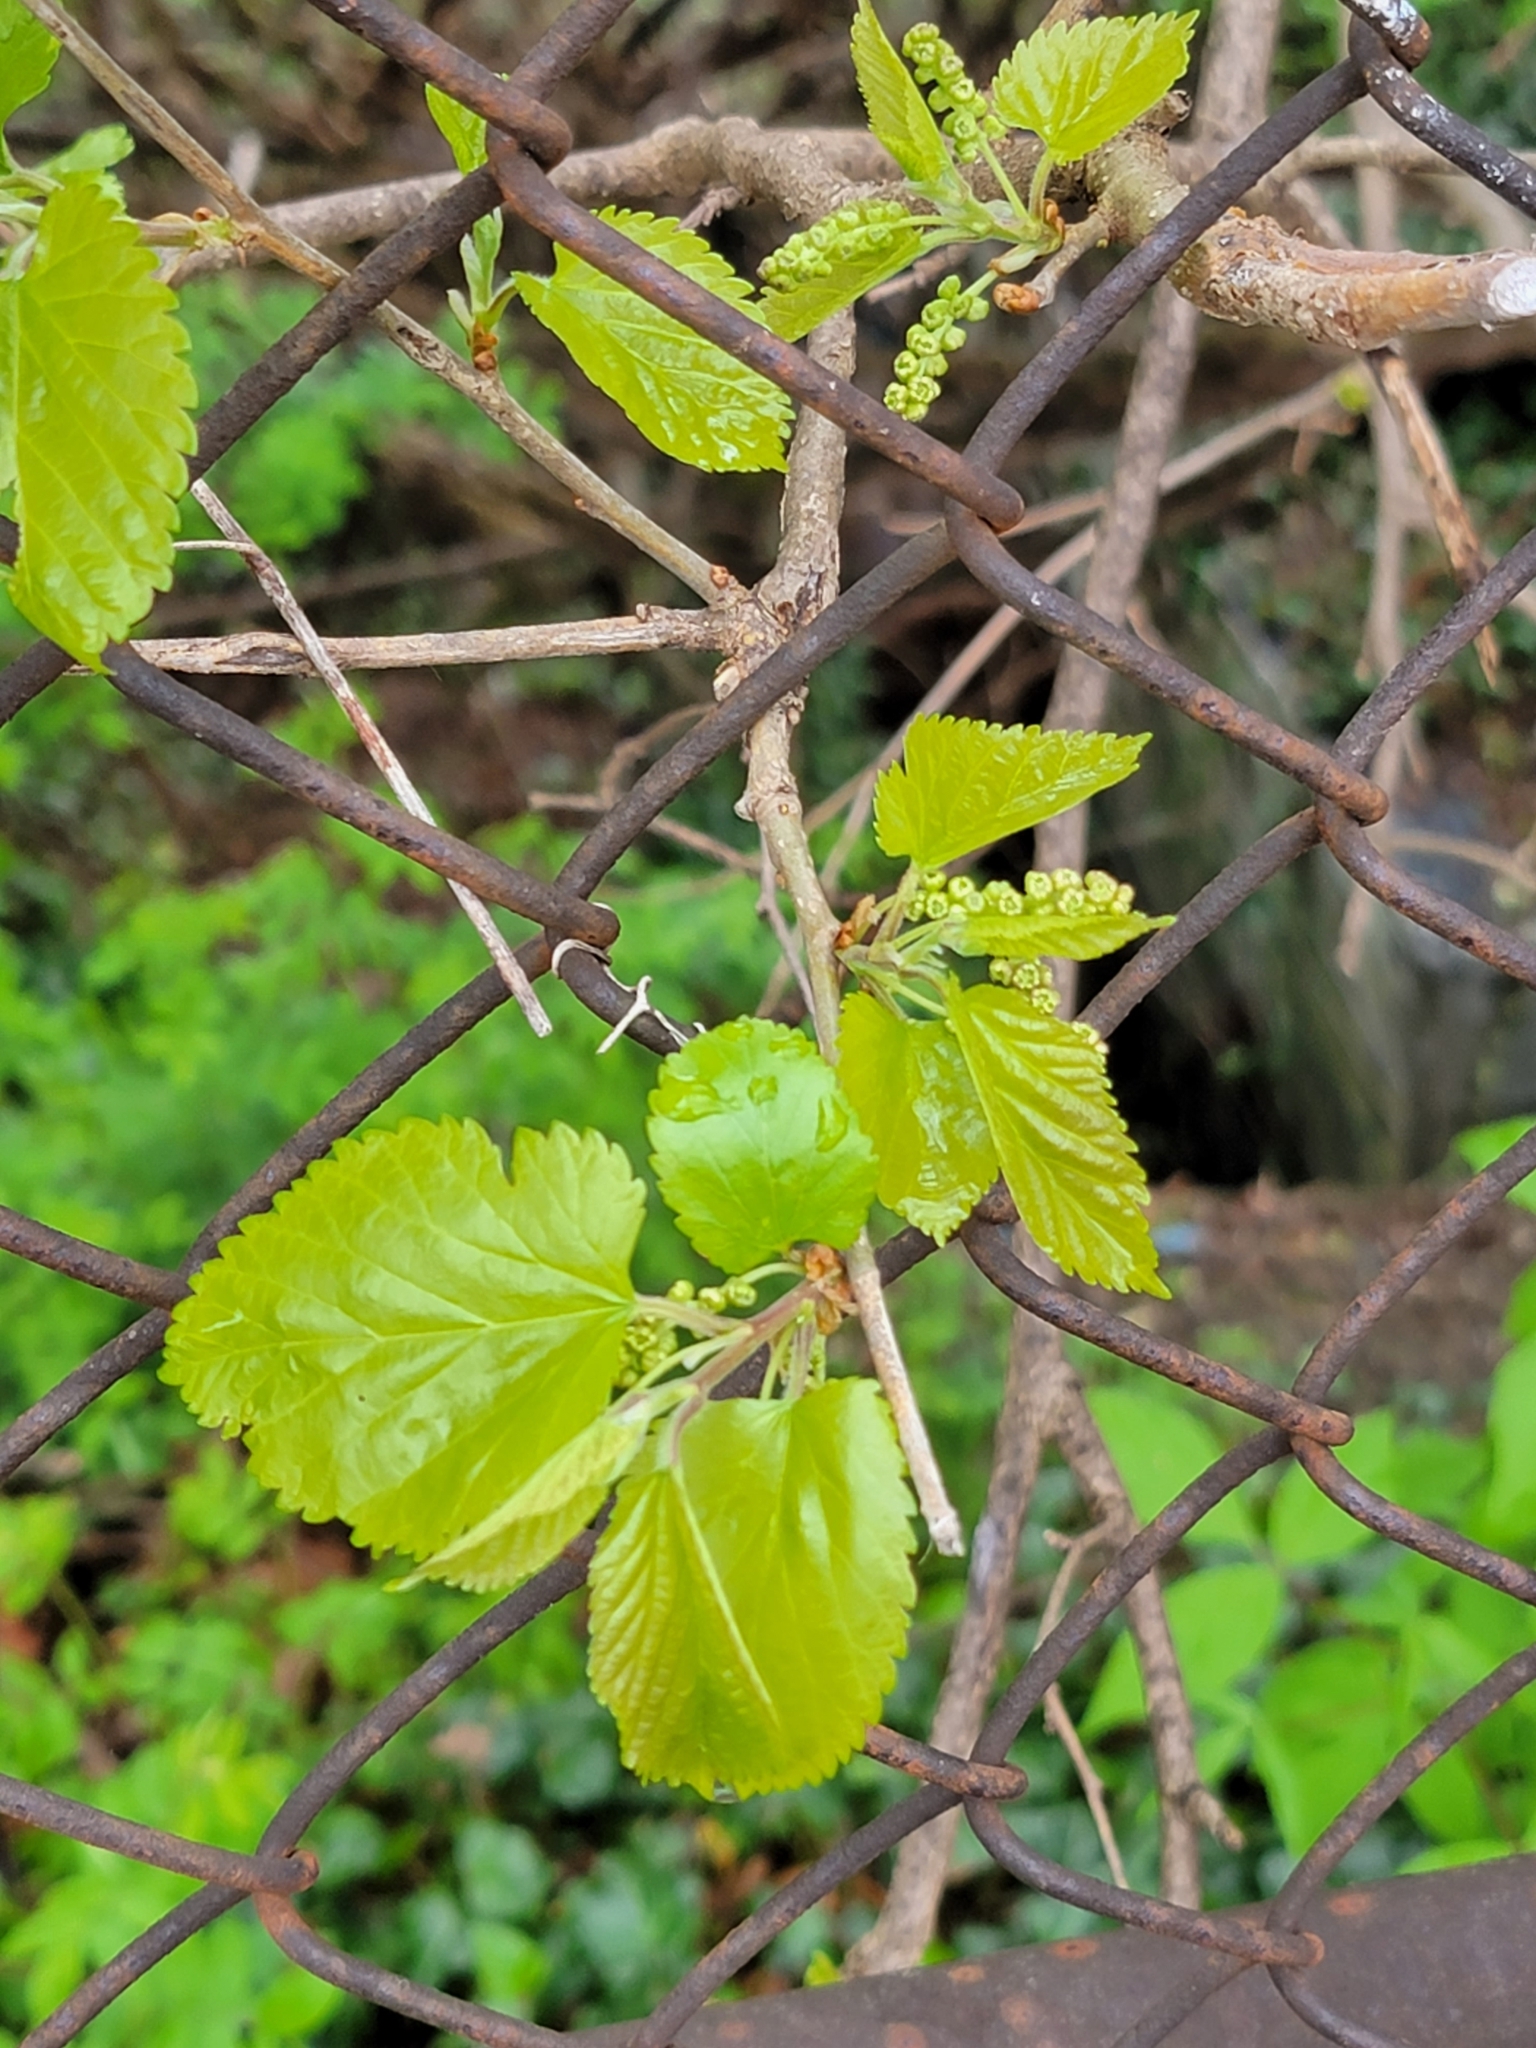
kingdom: Plantae
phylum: Tracheophyta
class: Magnoliopsida
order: Rosales
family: Moraceae
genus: Morus
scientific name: Morus alba
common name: White mulberry
